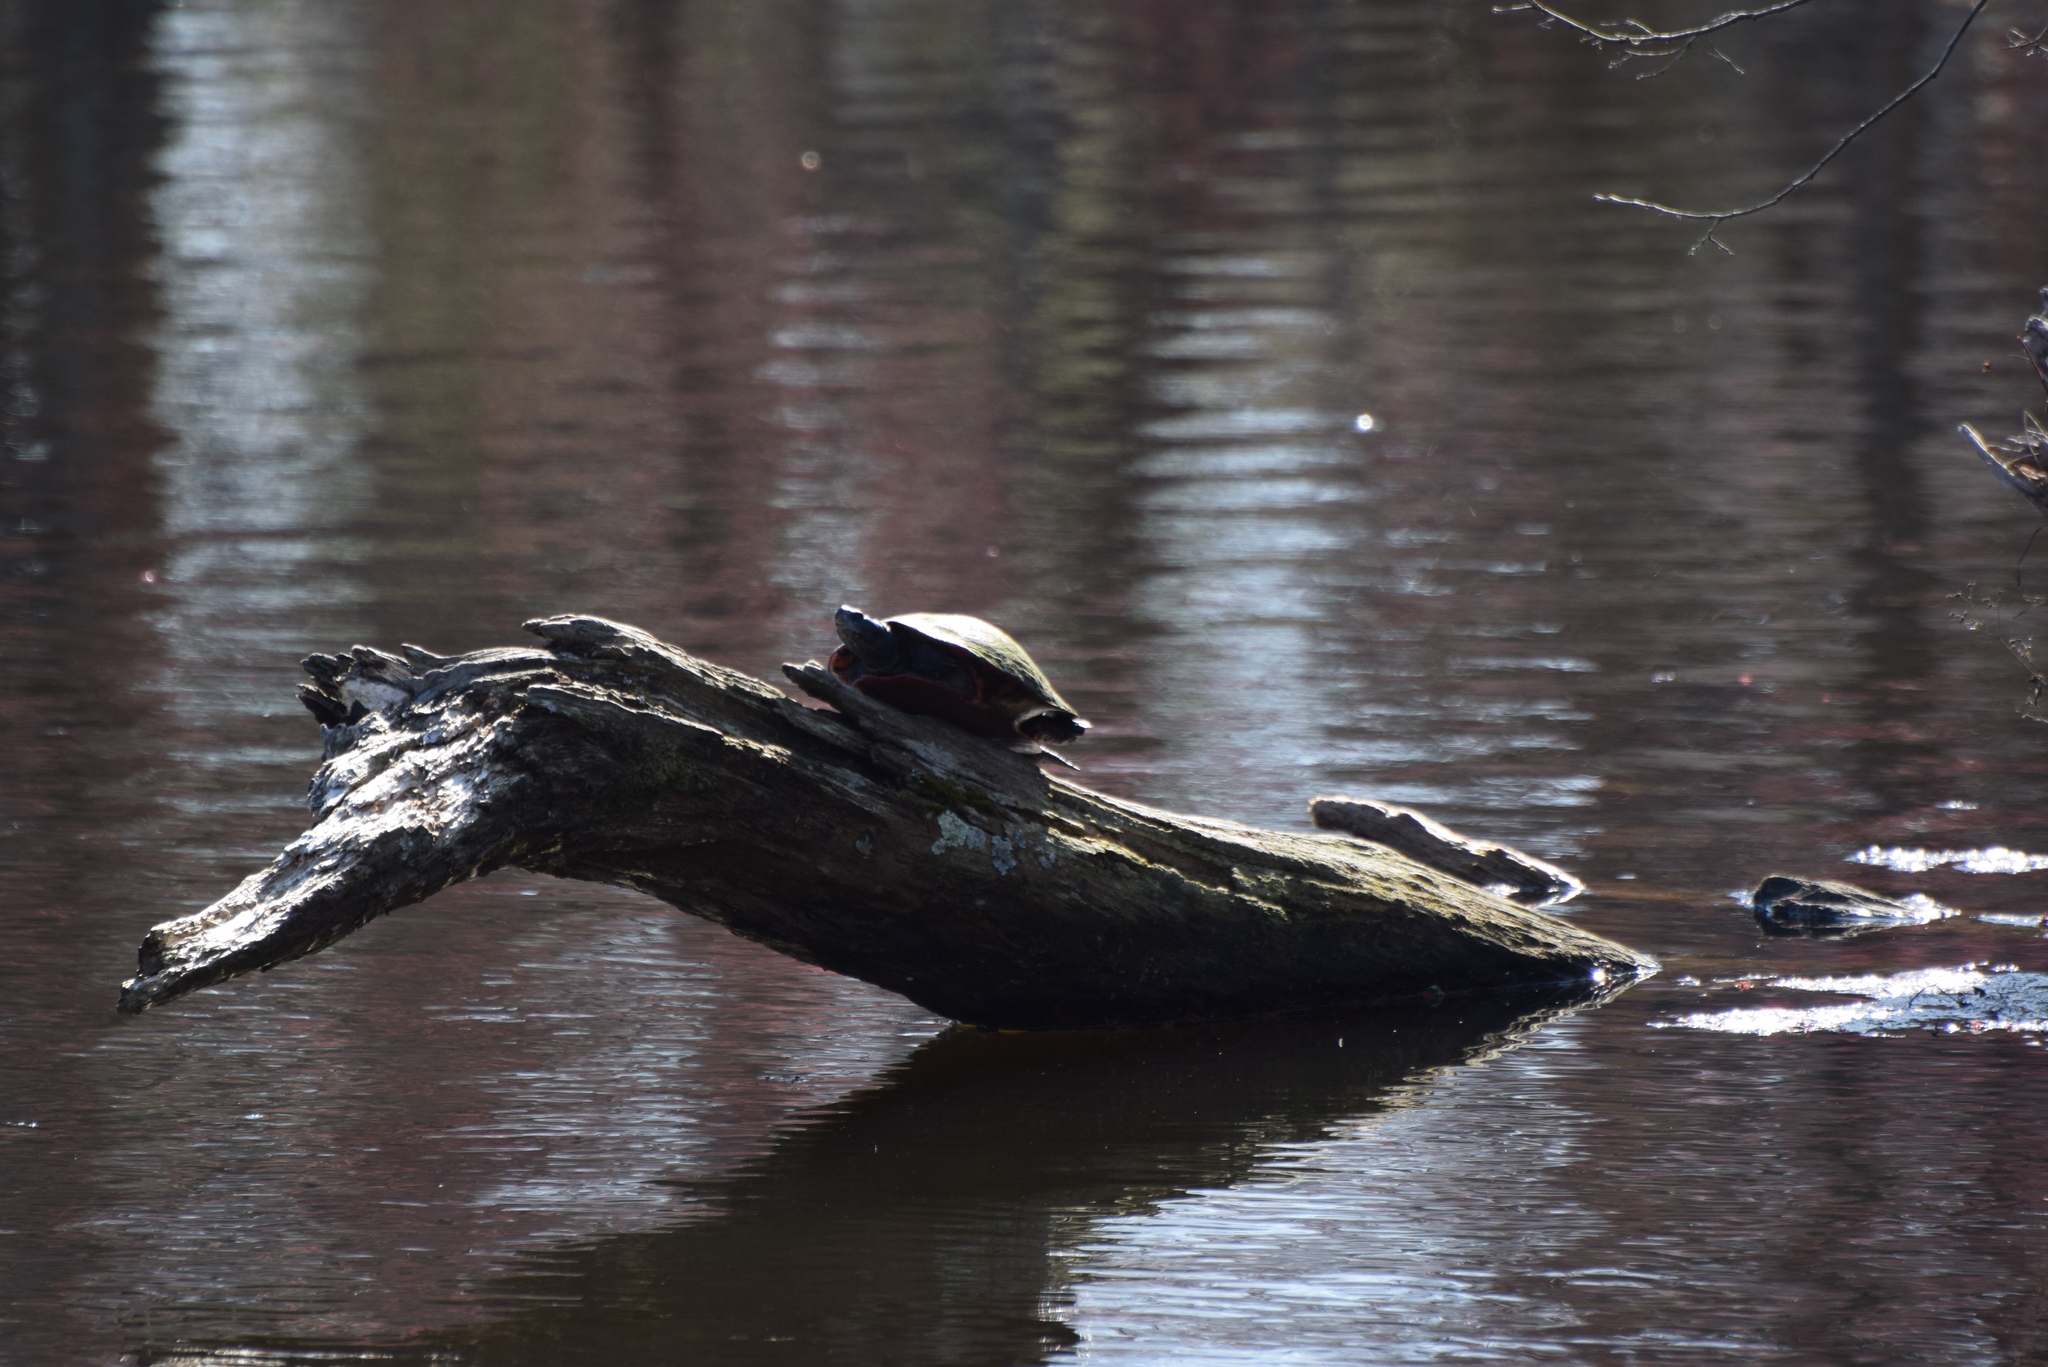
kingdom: Animalia
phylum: Chordata
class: Testudines
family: Emydidae
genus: Pseudemys
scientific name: Pseudemys rubriventris
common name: American red-bellied turtle
